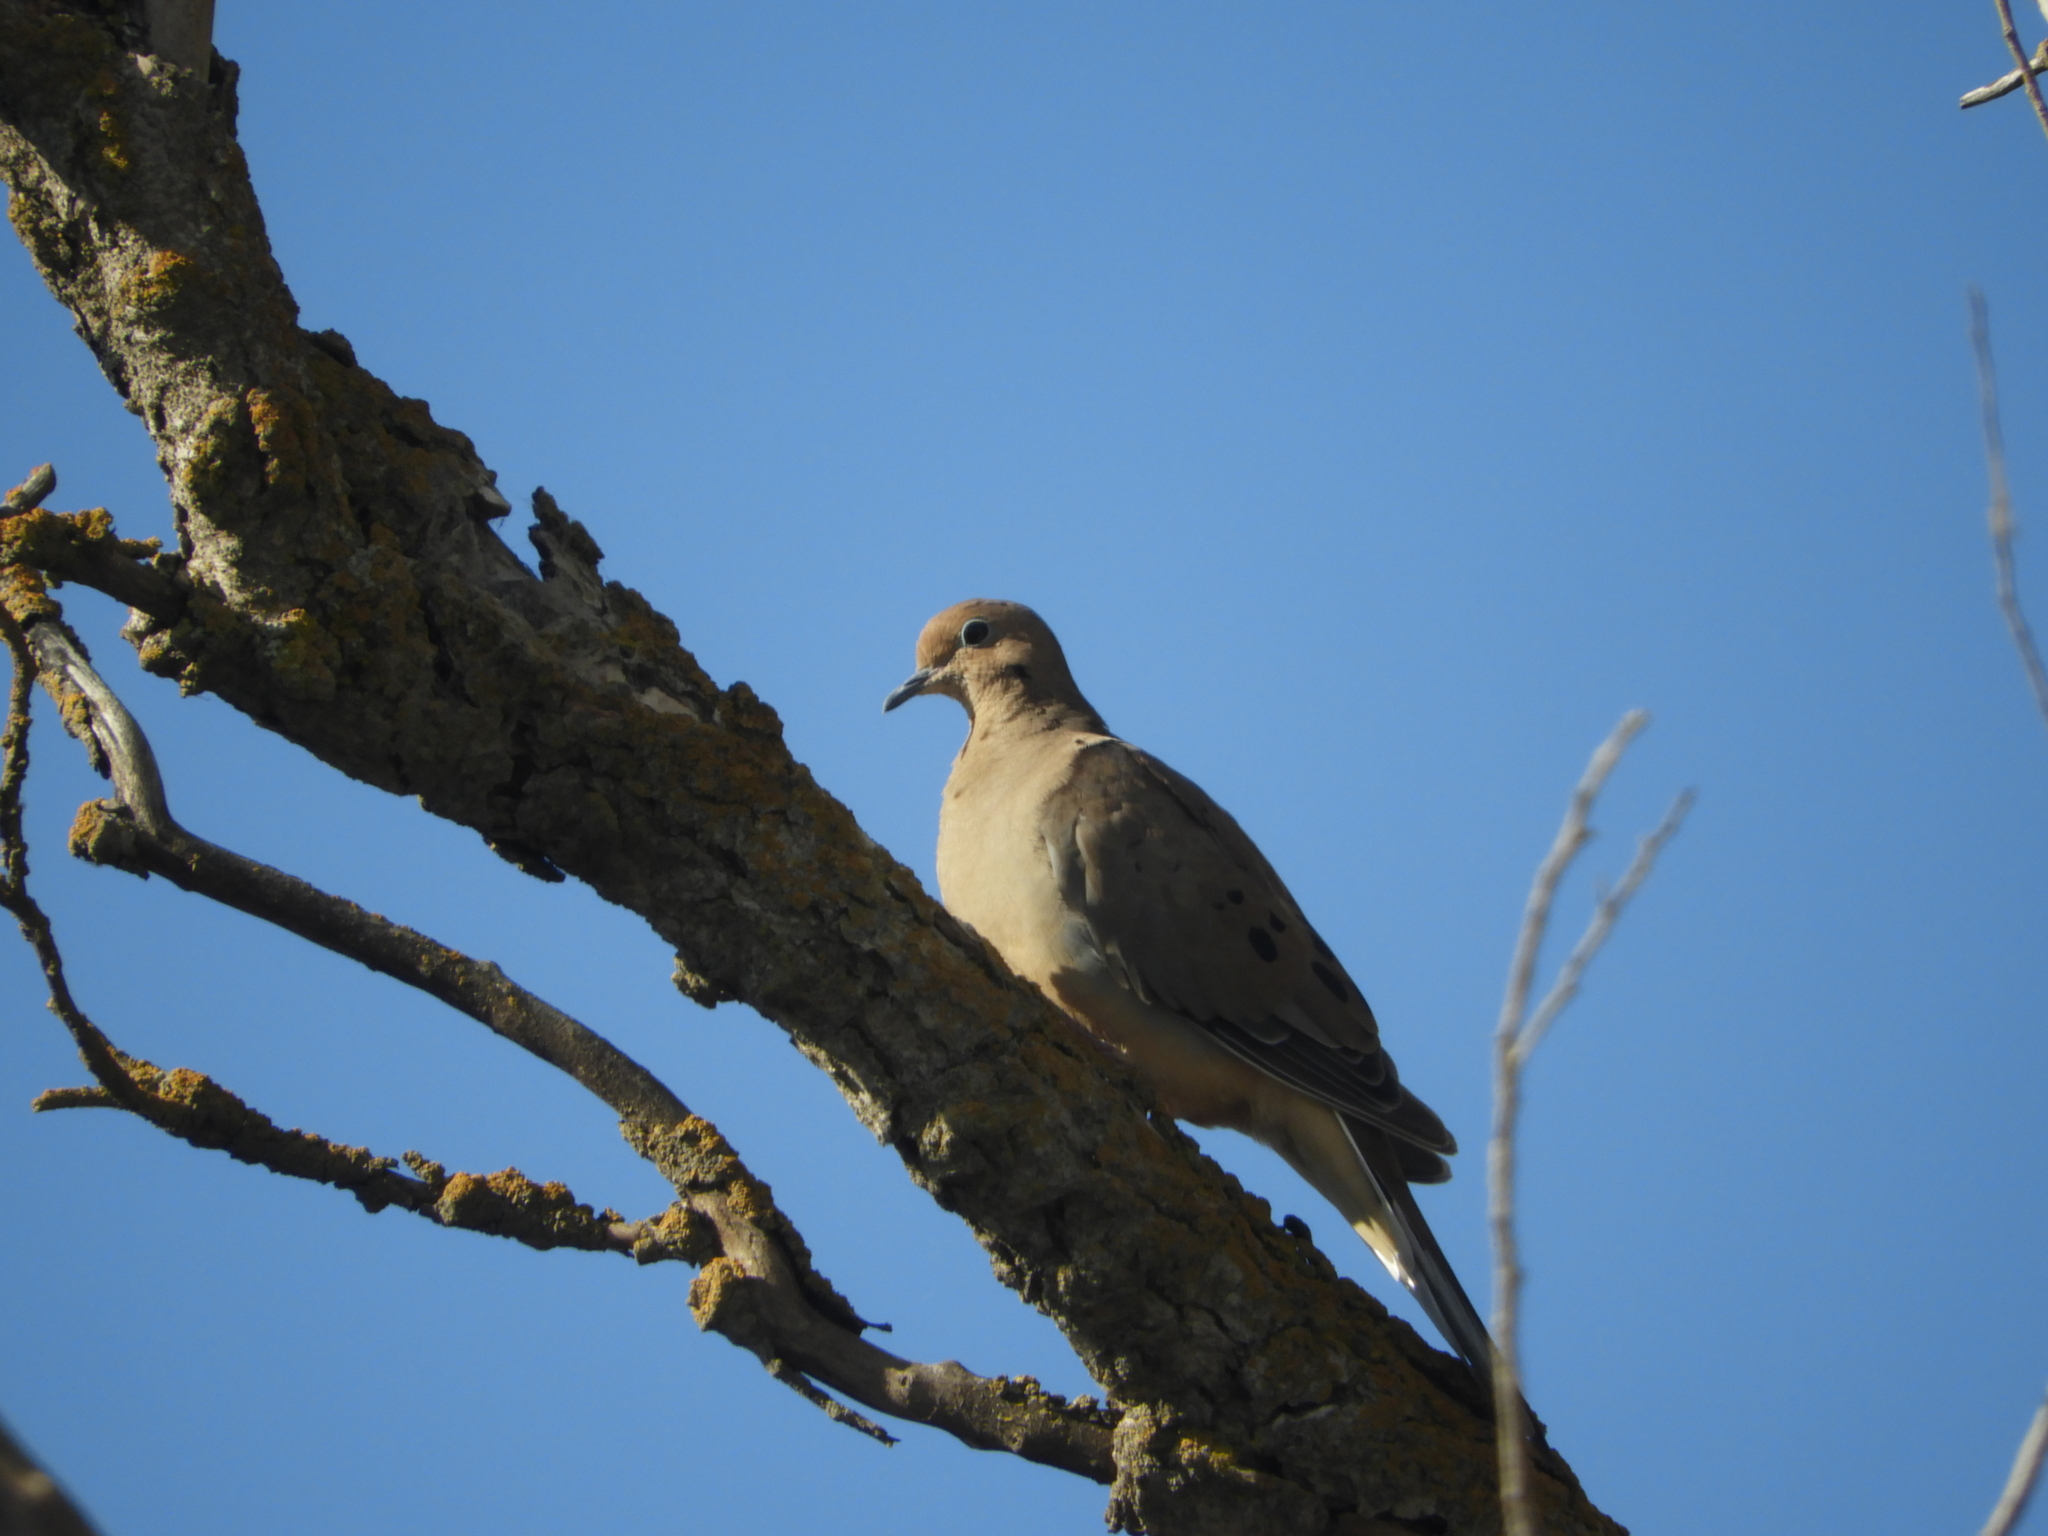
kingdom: Animalia
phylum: Chordata
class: Aves
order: Columbiformes
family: Columbidae
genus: Zenaida
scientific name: Zenaida macroura
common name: Mourning dove
